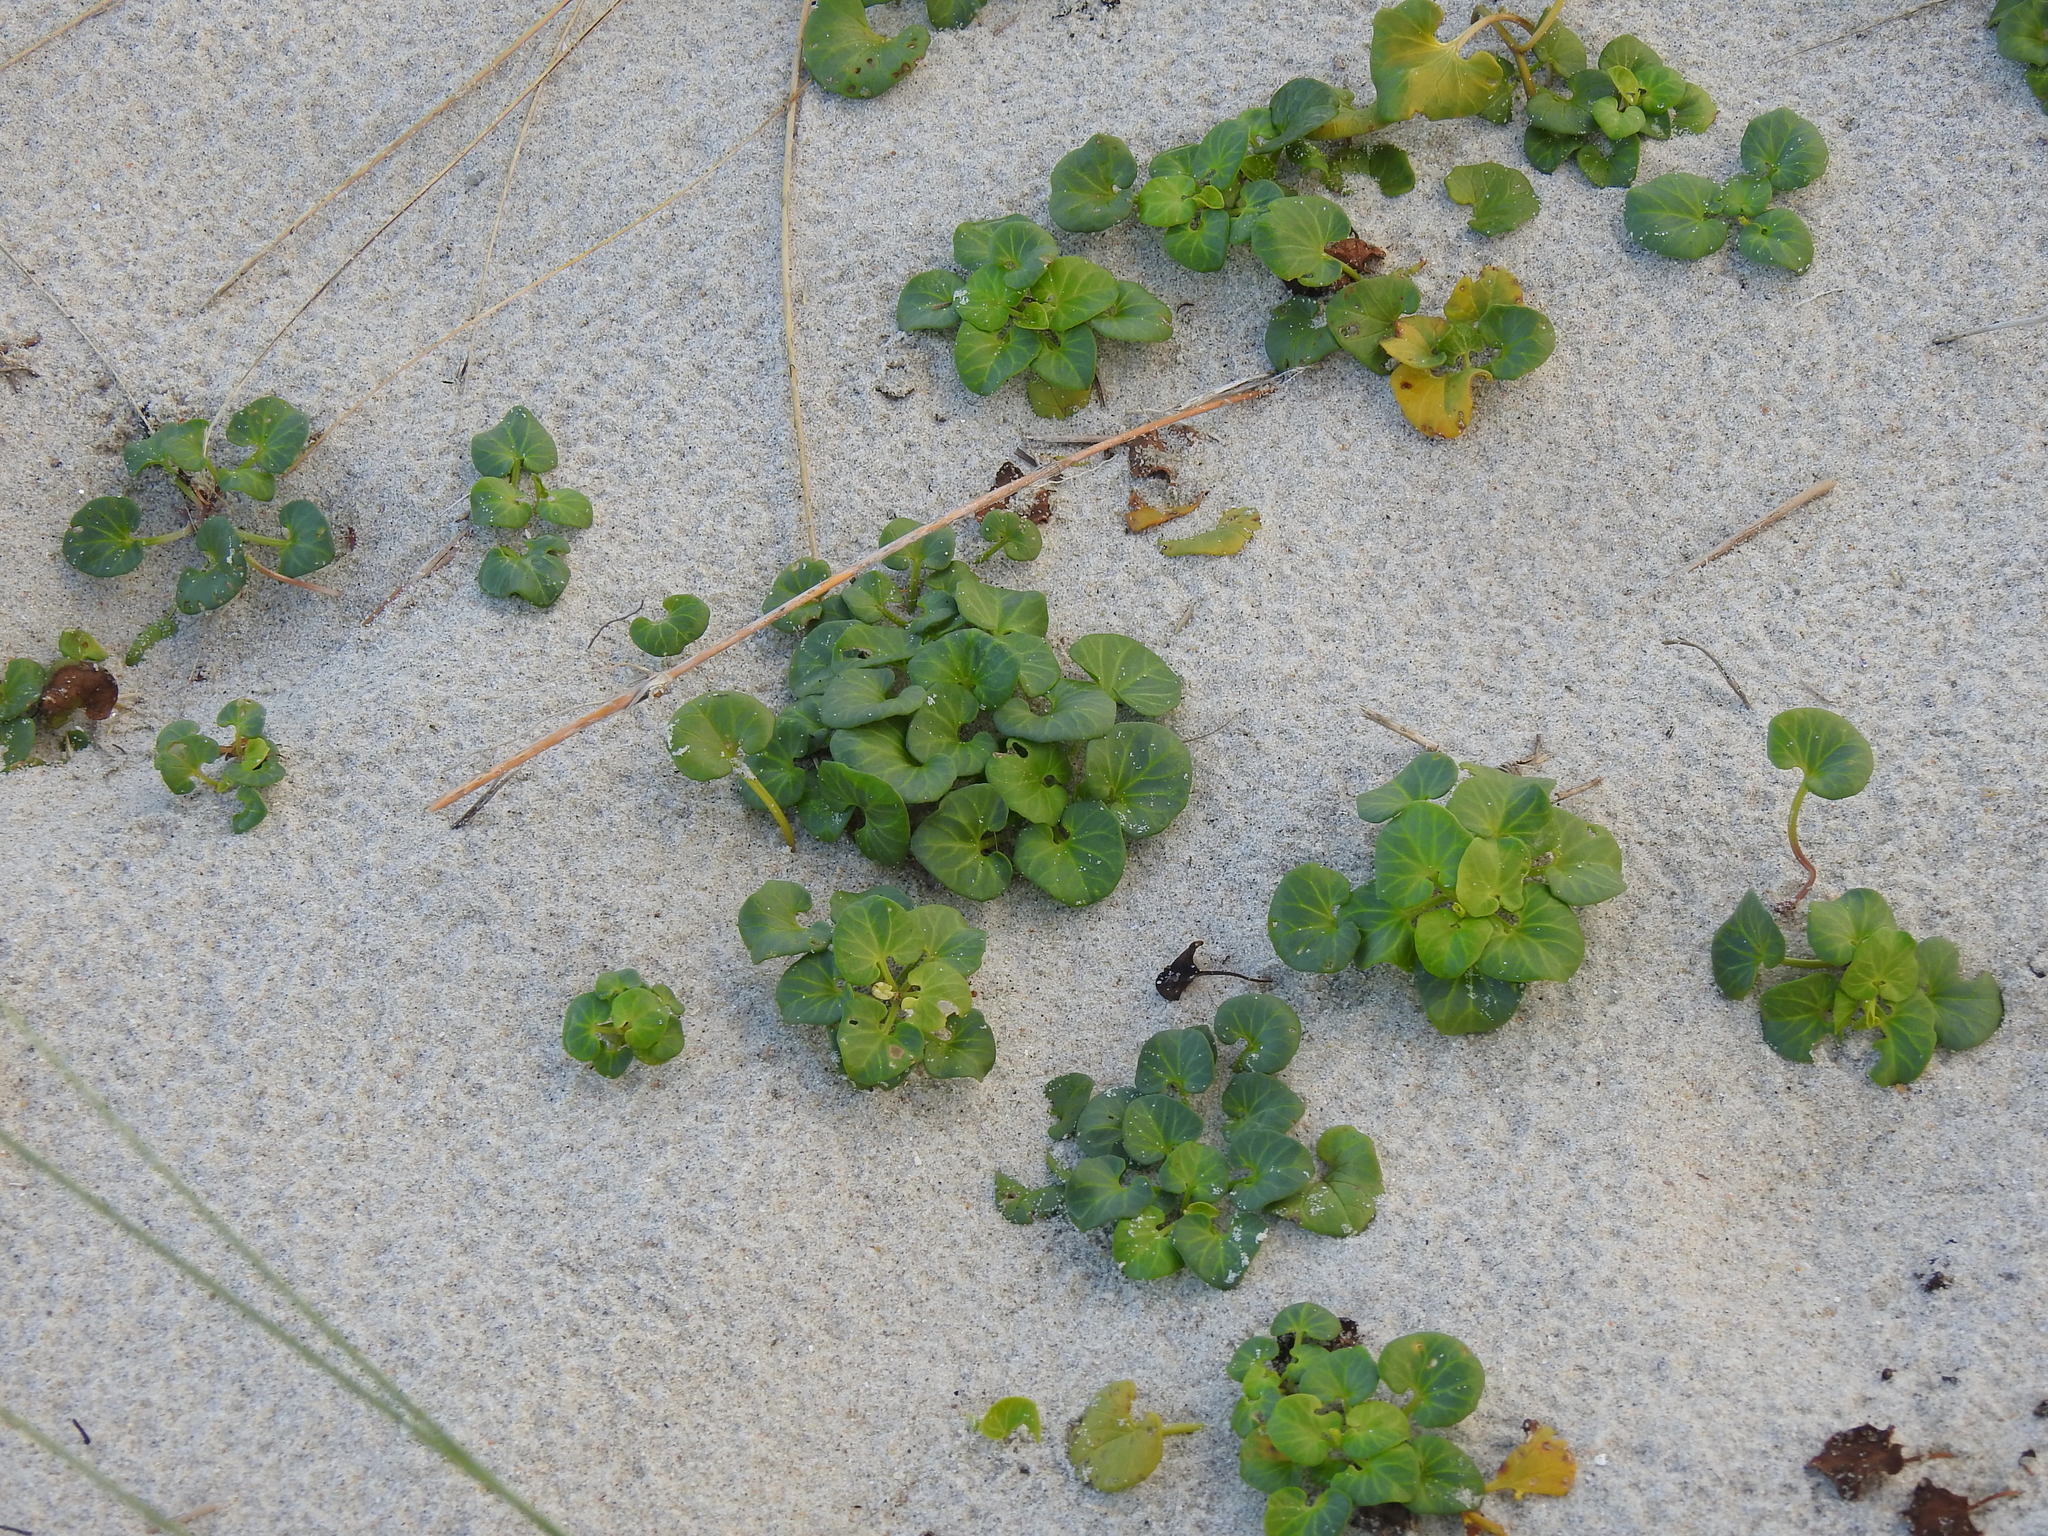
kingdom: Plantae
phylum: Tracheophyta
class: Magnoliopsida
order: Solanales
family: Convolvulaceae
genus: Calystegia
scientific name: Calystegia soldanella
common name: Sea bindweed
